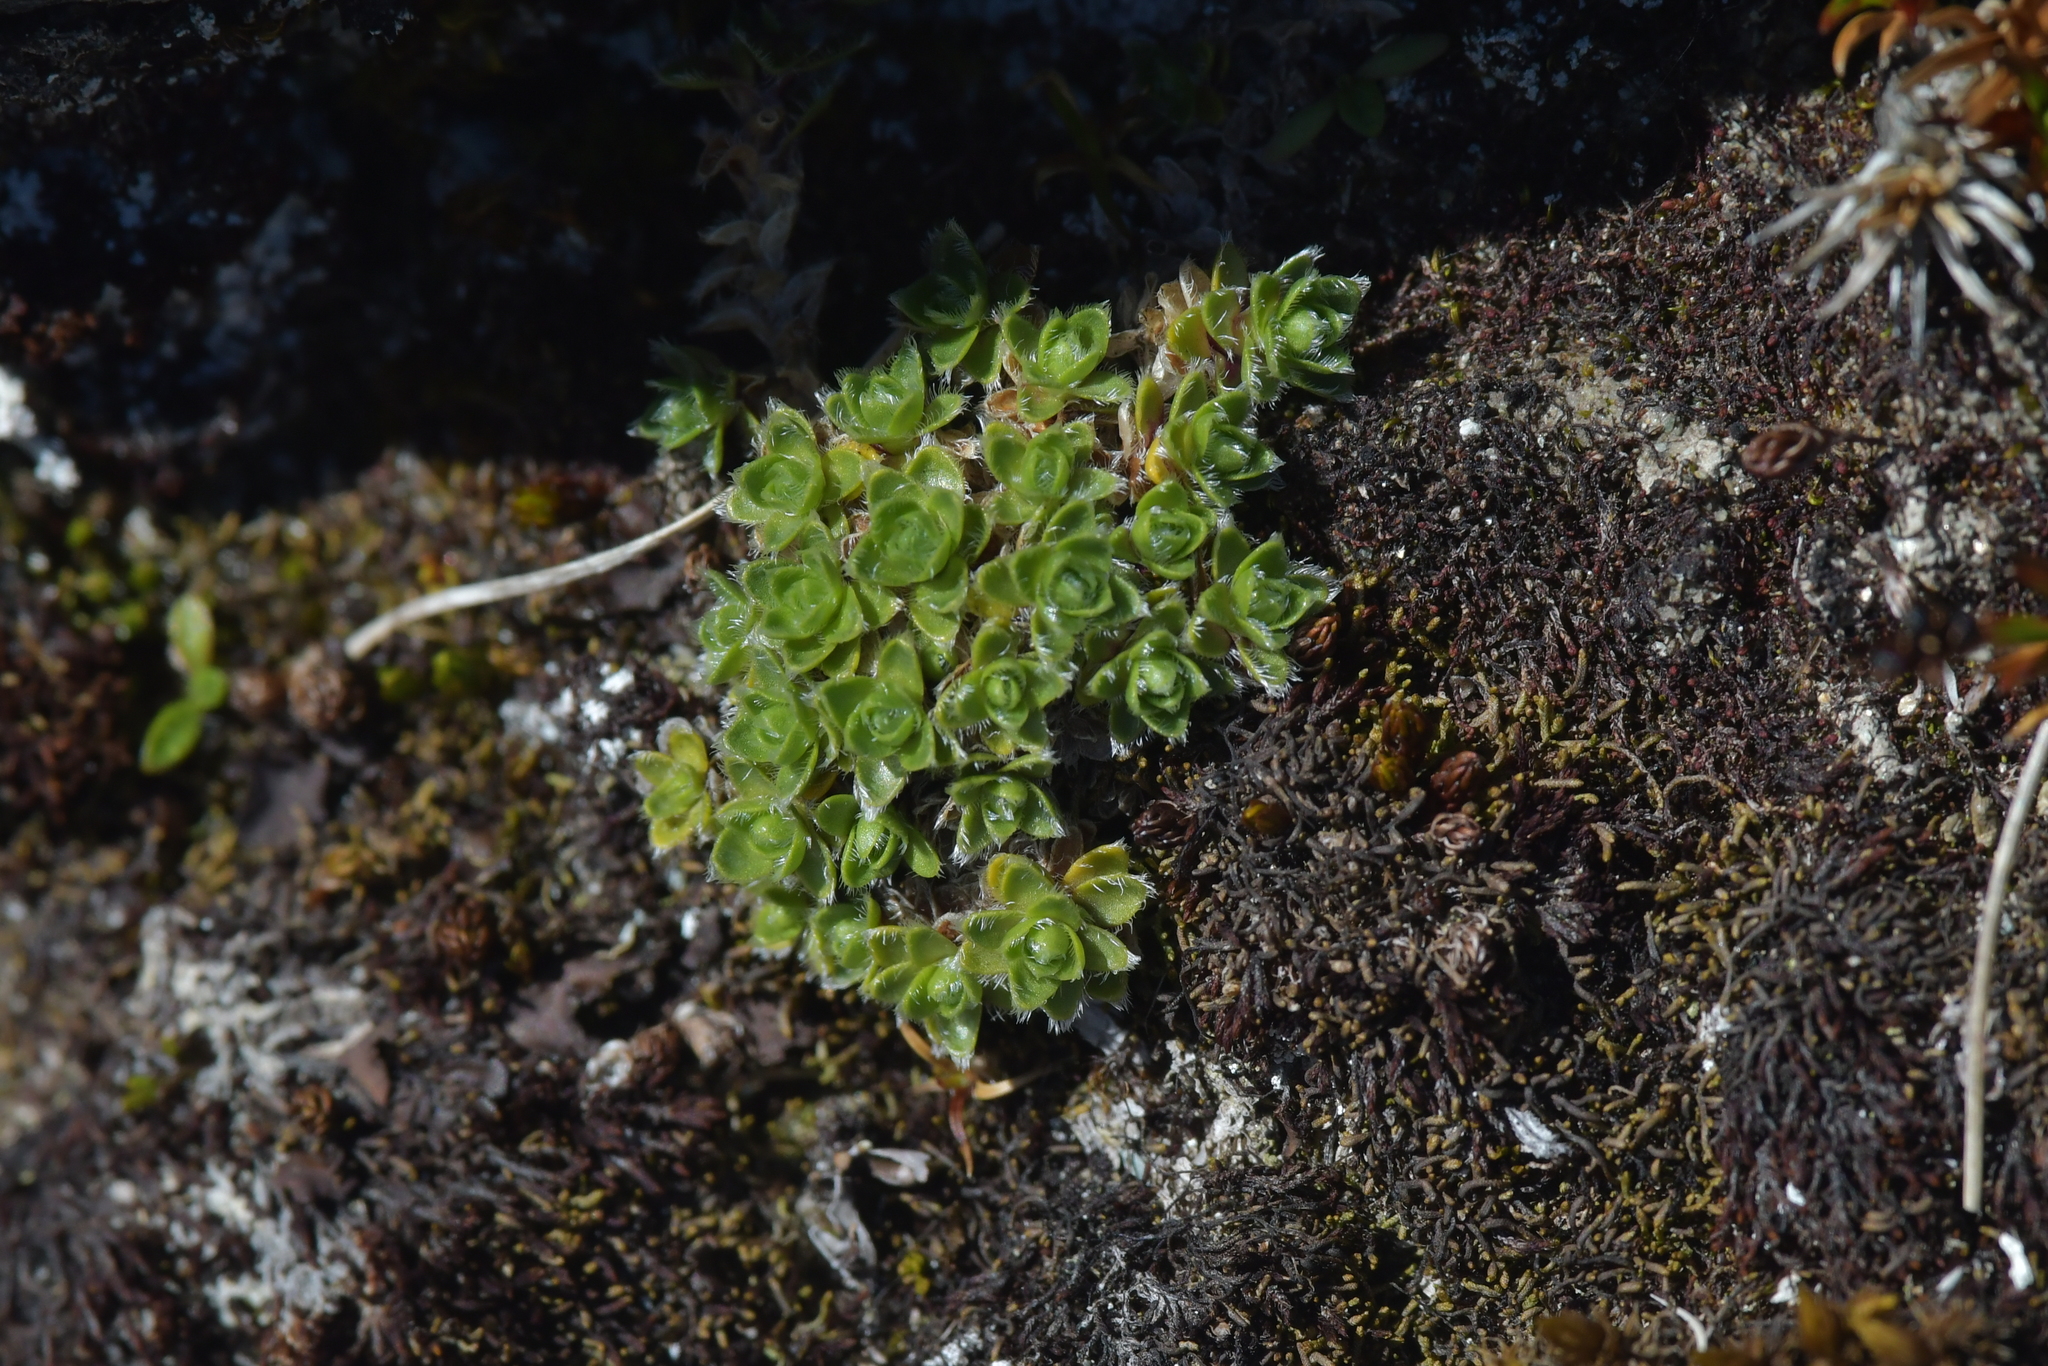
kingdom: Plantae
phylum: Tracheophyta
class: Magnoliopsida
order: Lamiales
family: Plantaginaceae
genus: Veronica
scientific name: Veronica ciliolata
